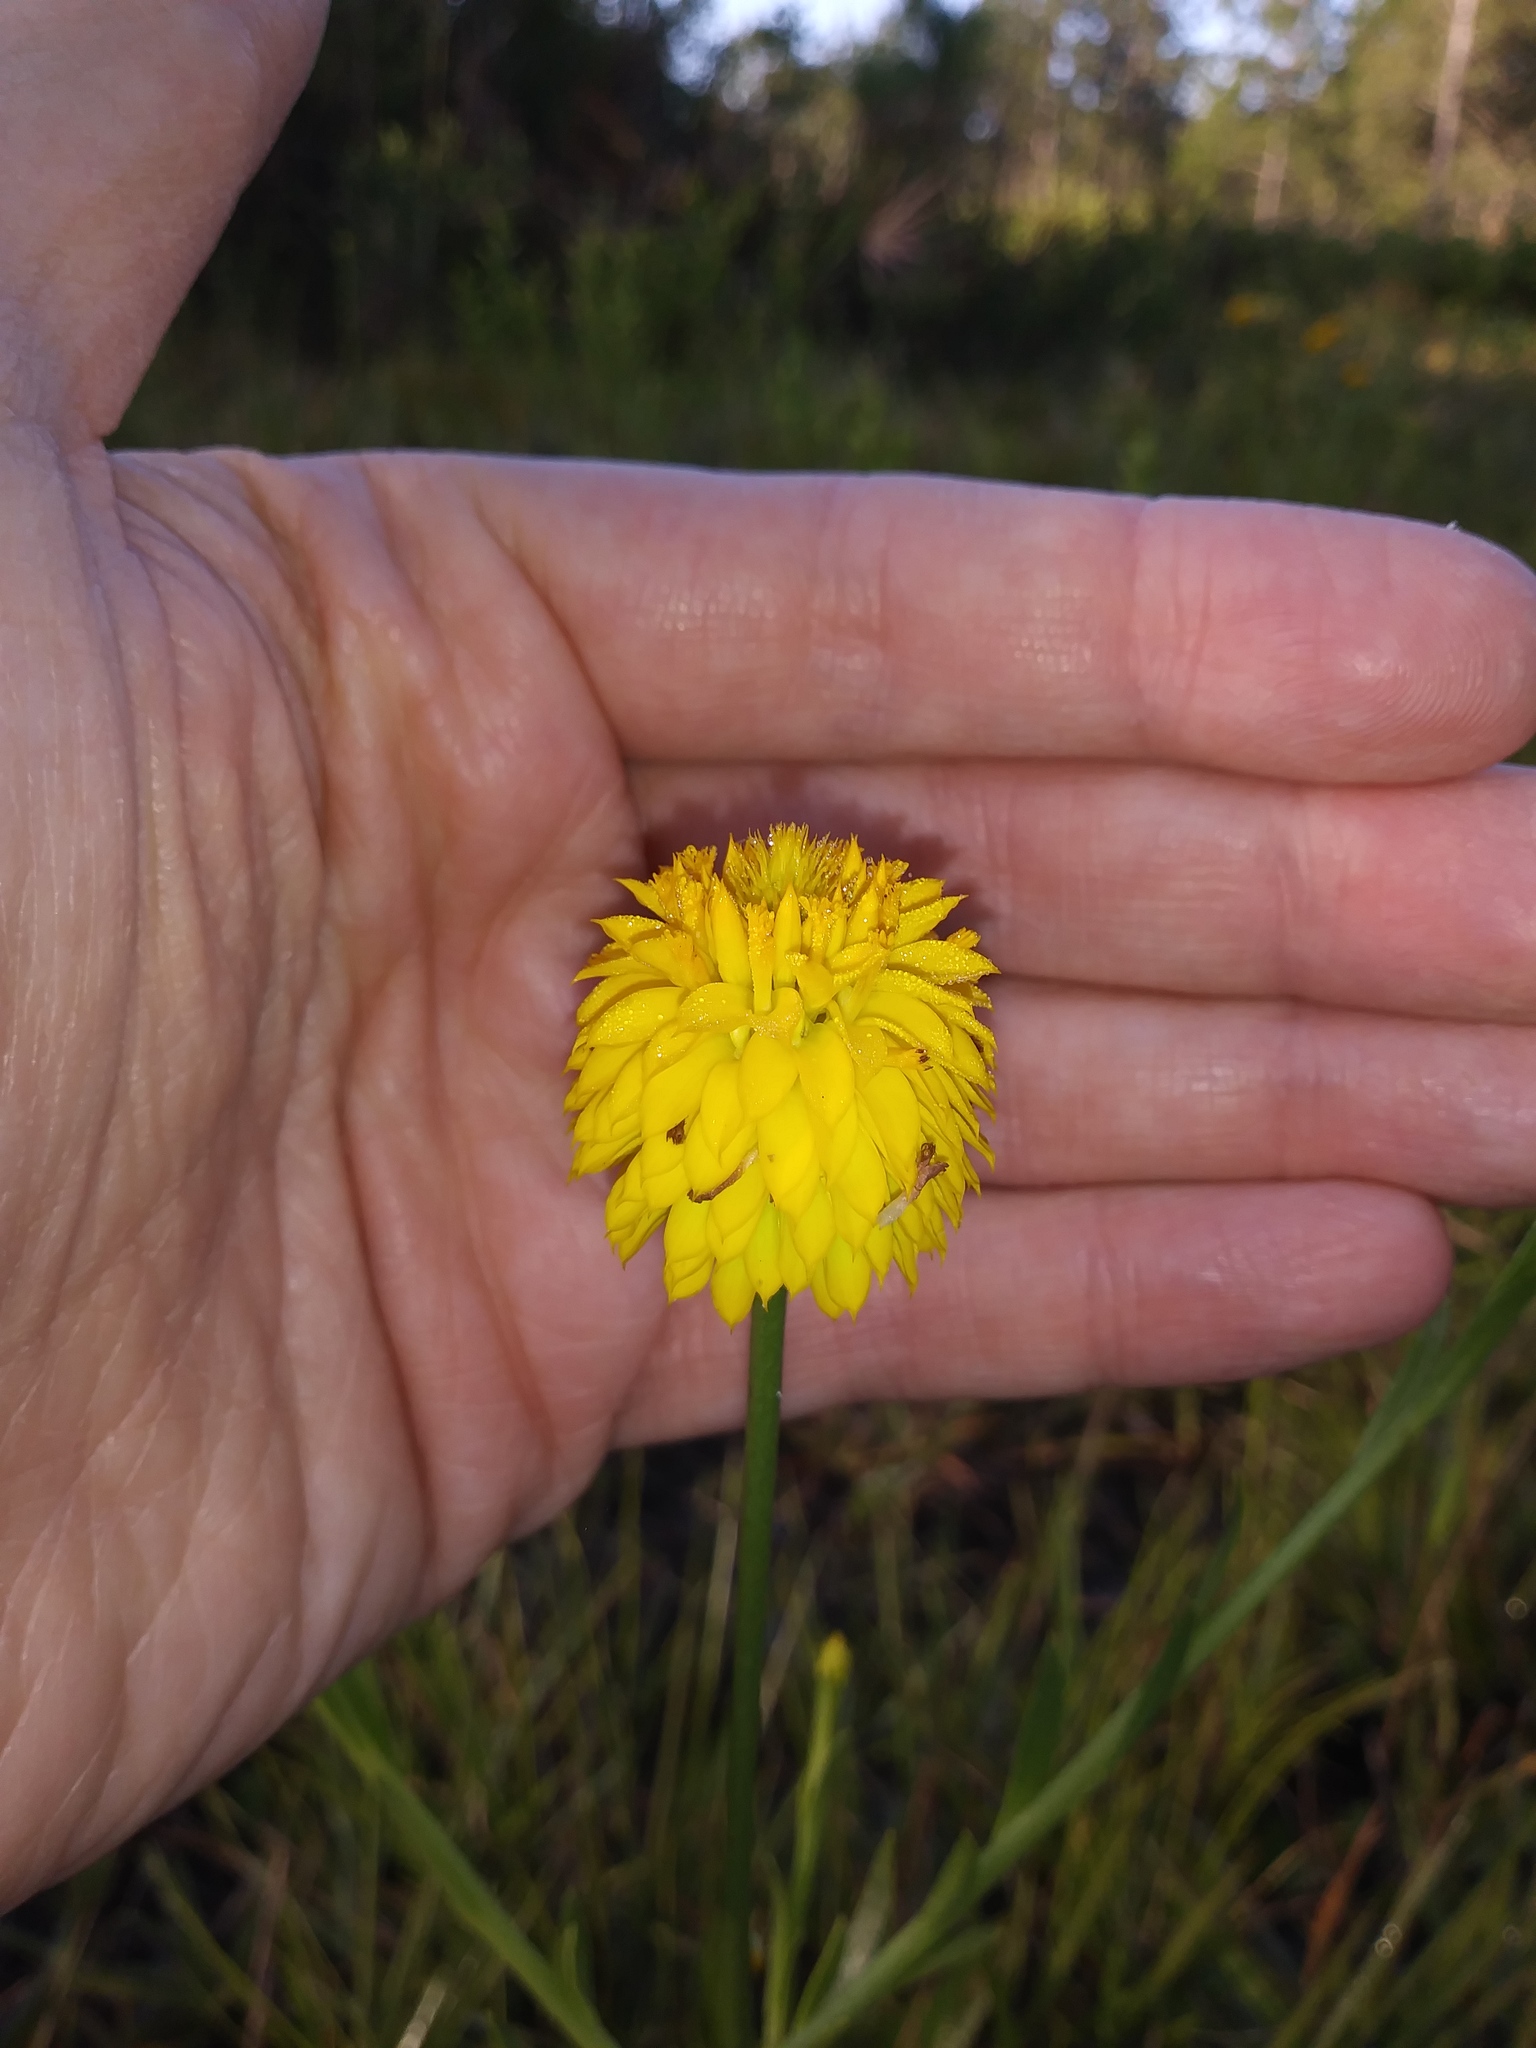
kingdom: Plantae
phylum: Tracheophyta
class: Magnoliopsida
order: Fabales
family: Polygalaceae
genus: Polygala
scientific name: Polygala rugelii
